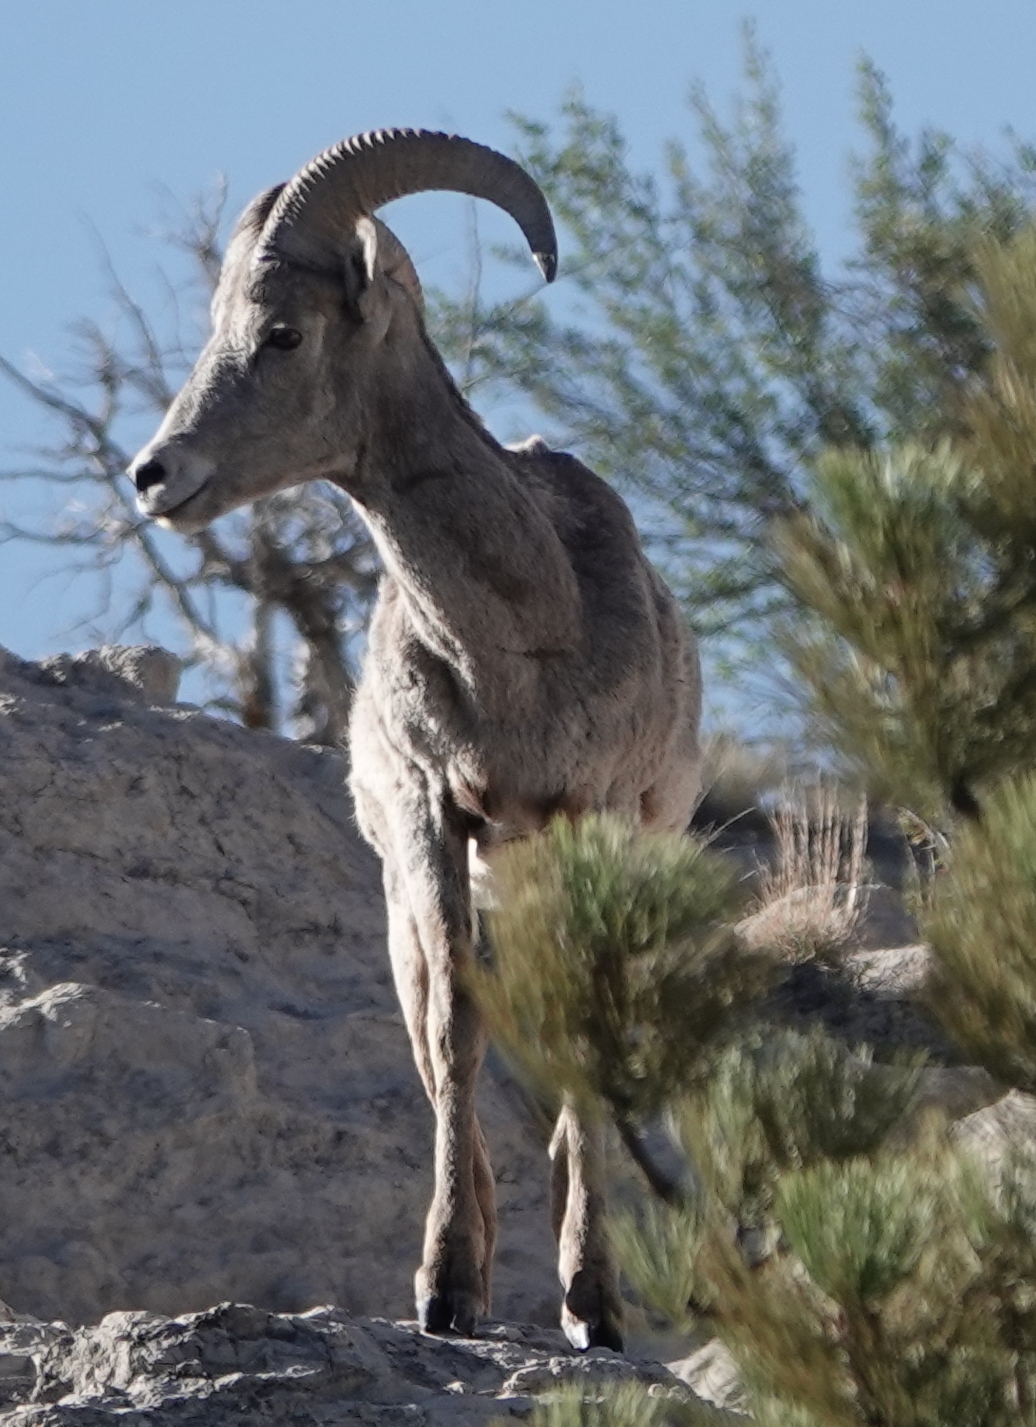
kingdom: Animalia
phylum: Chordata
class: Mammalia
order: Artiodactyla
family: Bovidae
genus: Ovis
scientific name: Ovis canadensis
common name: Bighorn sheep
